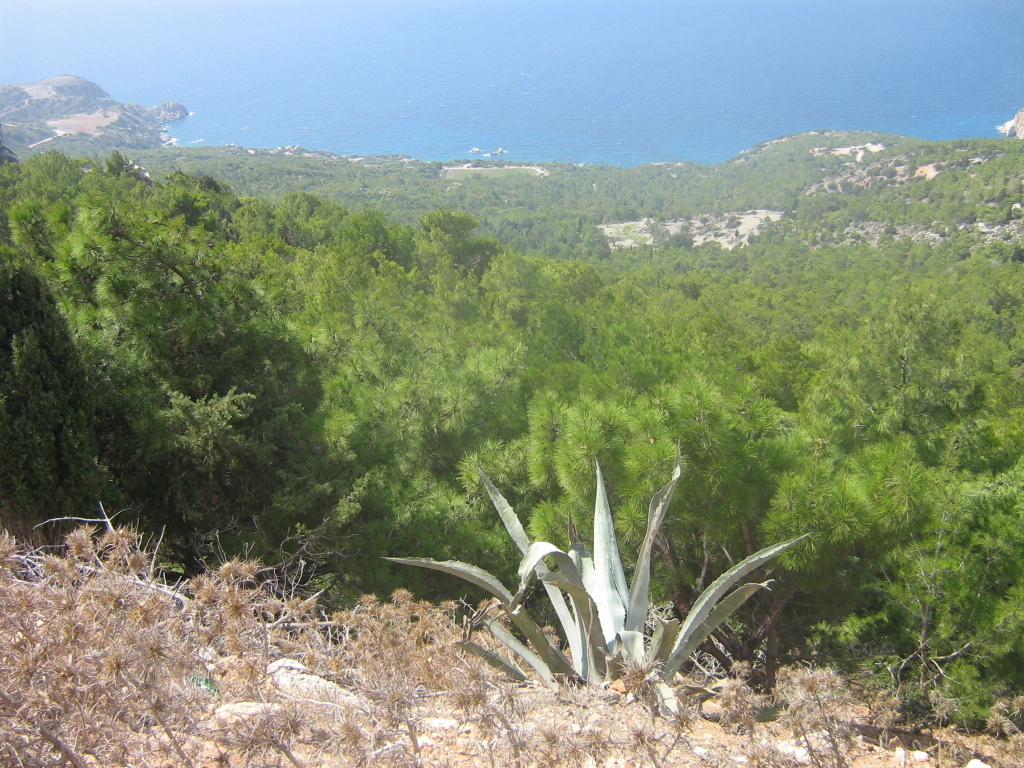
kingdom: Plantae
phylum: Tracheophyta
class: Liliopsida
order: Asparagales
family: Asparagaceae
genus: Agave
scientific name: Agave americana
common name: Centuryplant
